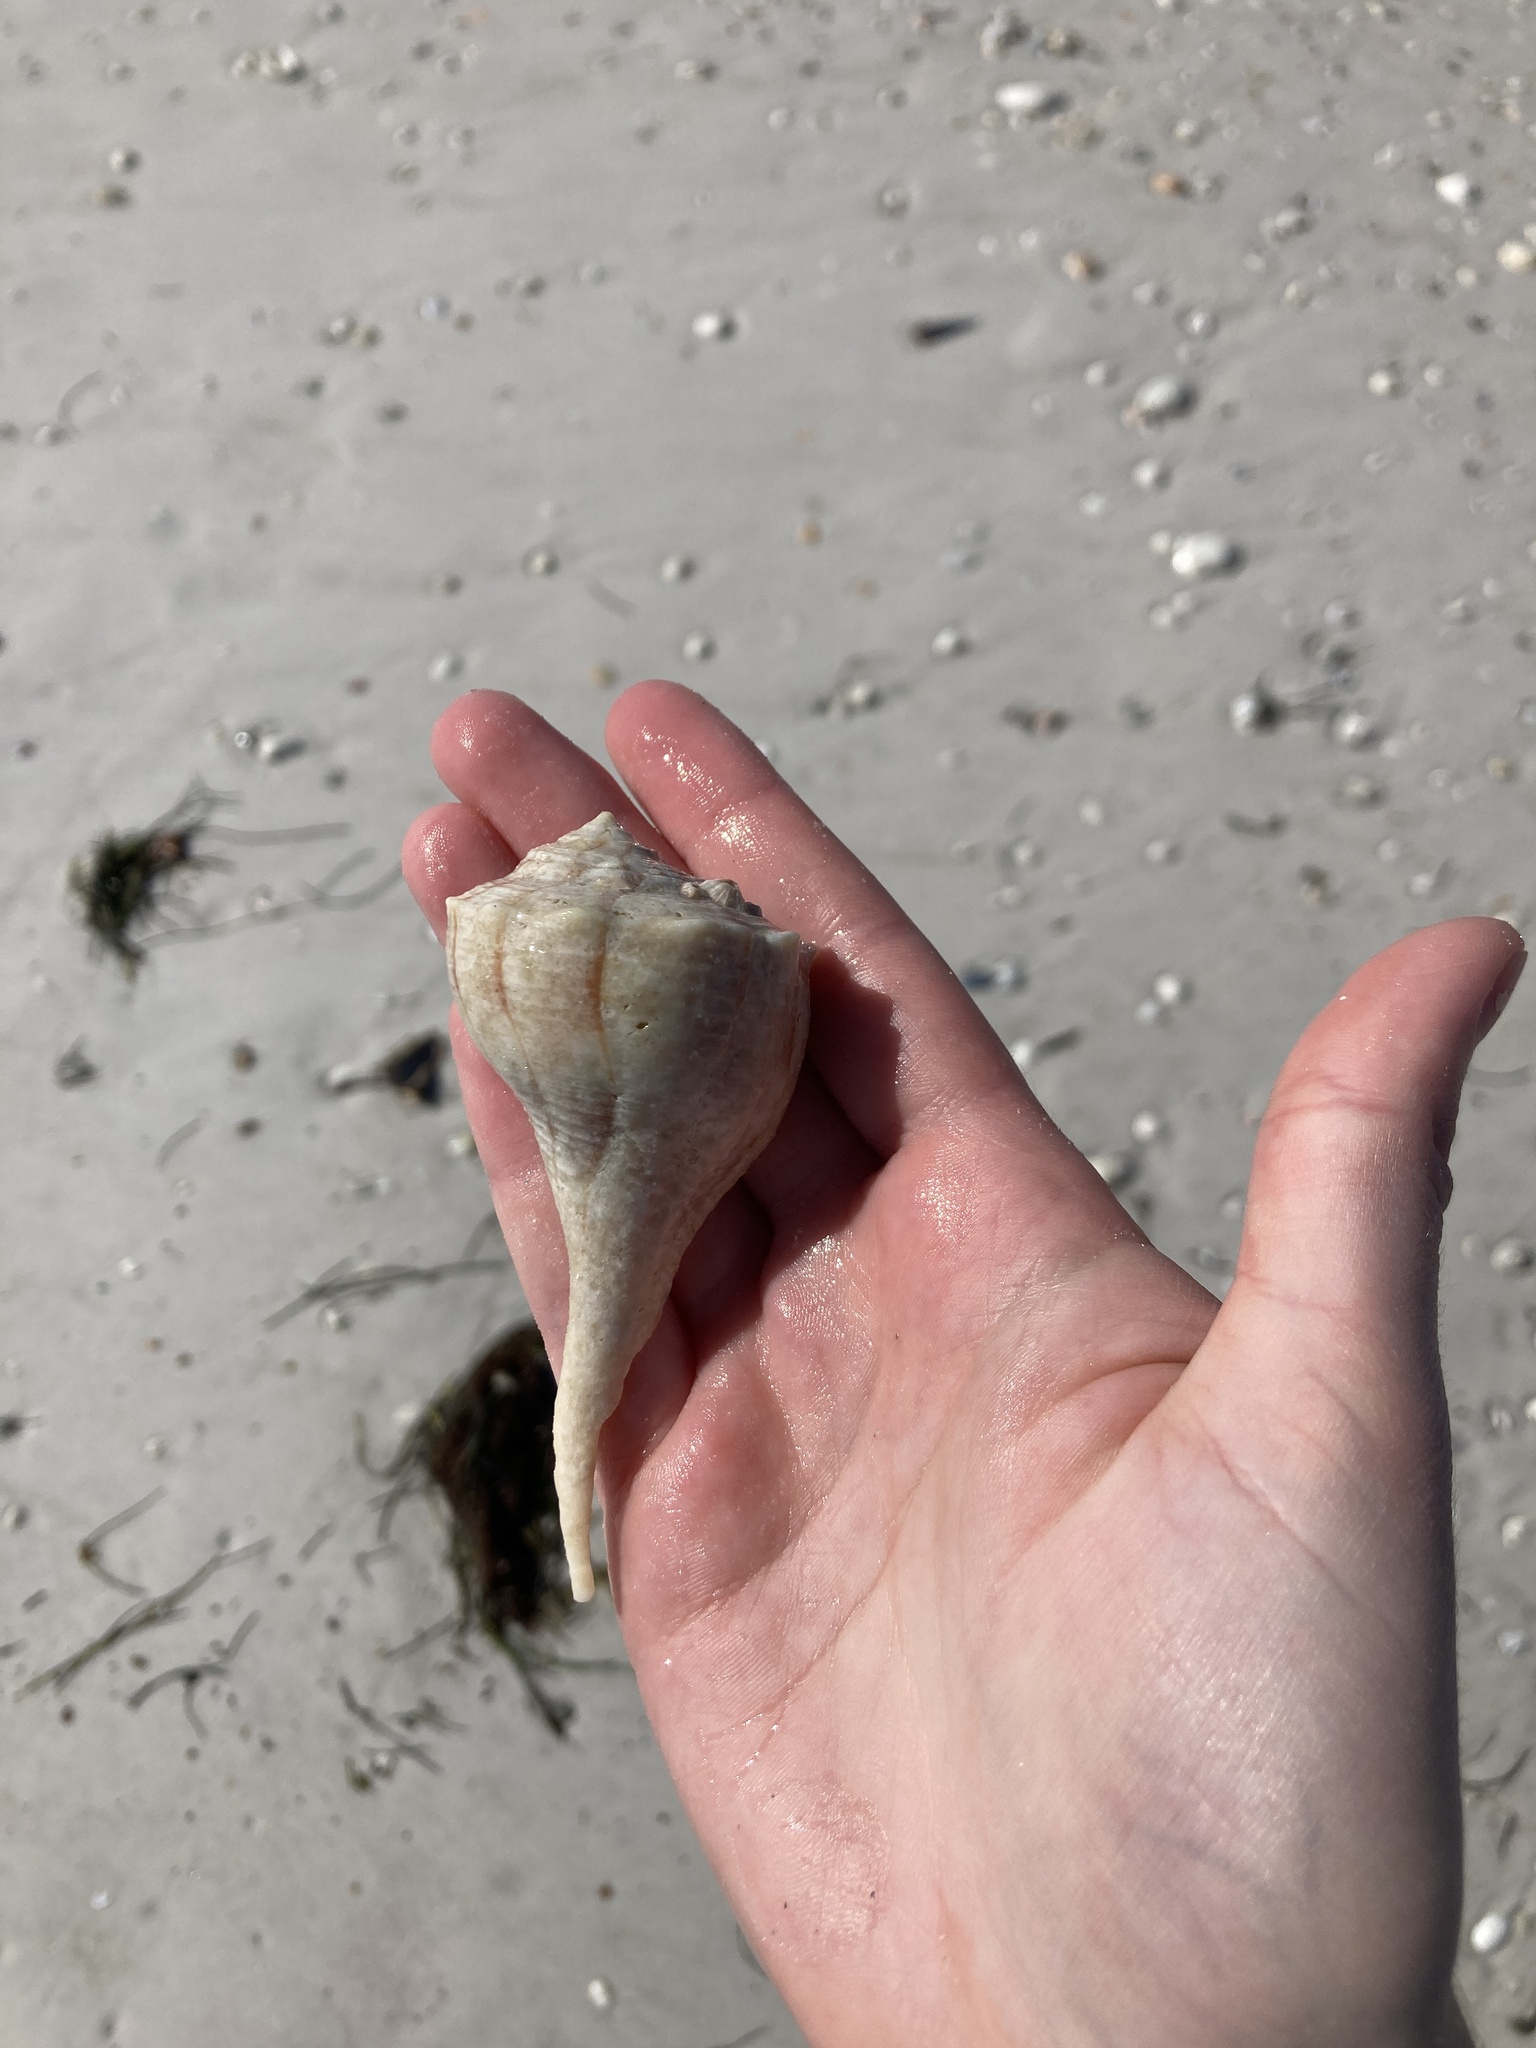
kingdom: Animalia
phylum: Mollusca
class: Gastropoda
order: Neogastropoda
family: Busyconidae
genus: Sinistrofulgur
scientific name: Sinistrofulgur sinistrum
